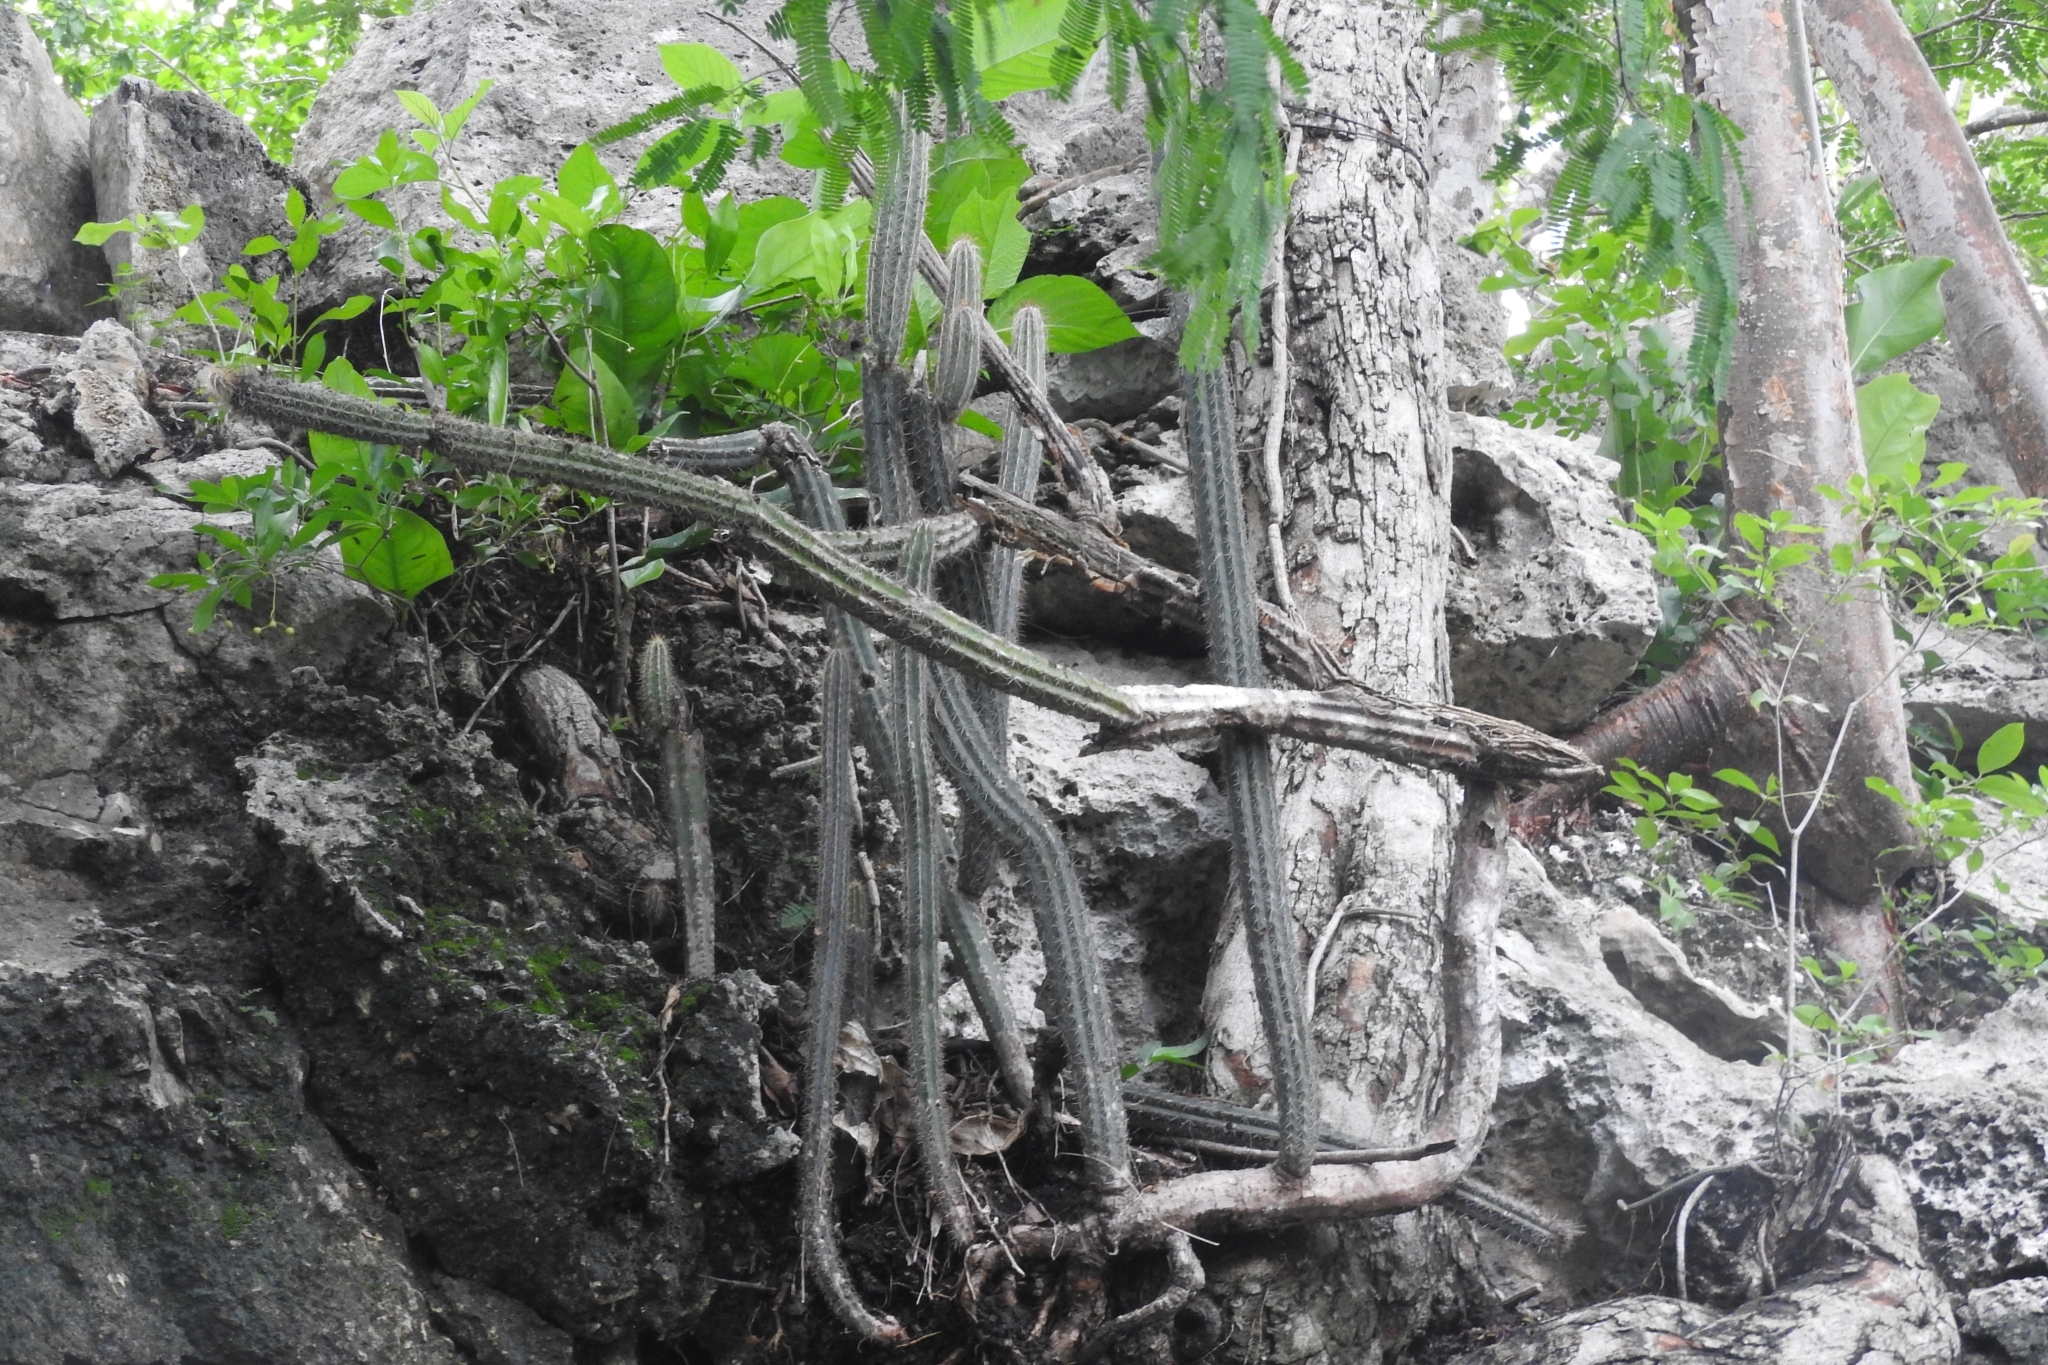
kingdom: Plantae
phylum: Tracheophyta
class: Magnoliopsida
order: Caryophyllales
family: Cactaceae
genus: Pilosocereus
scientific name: Pilosocereus gaumeri
